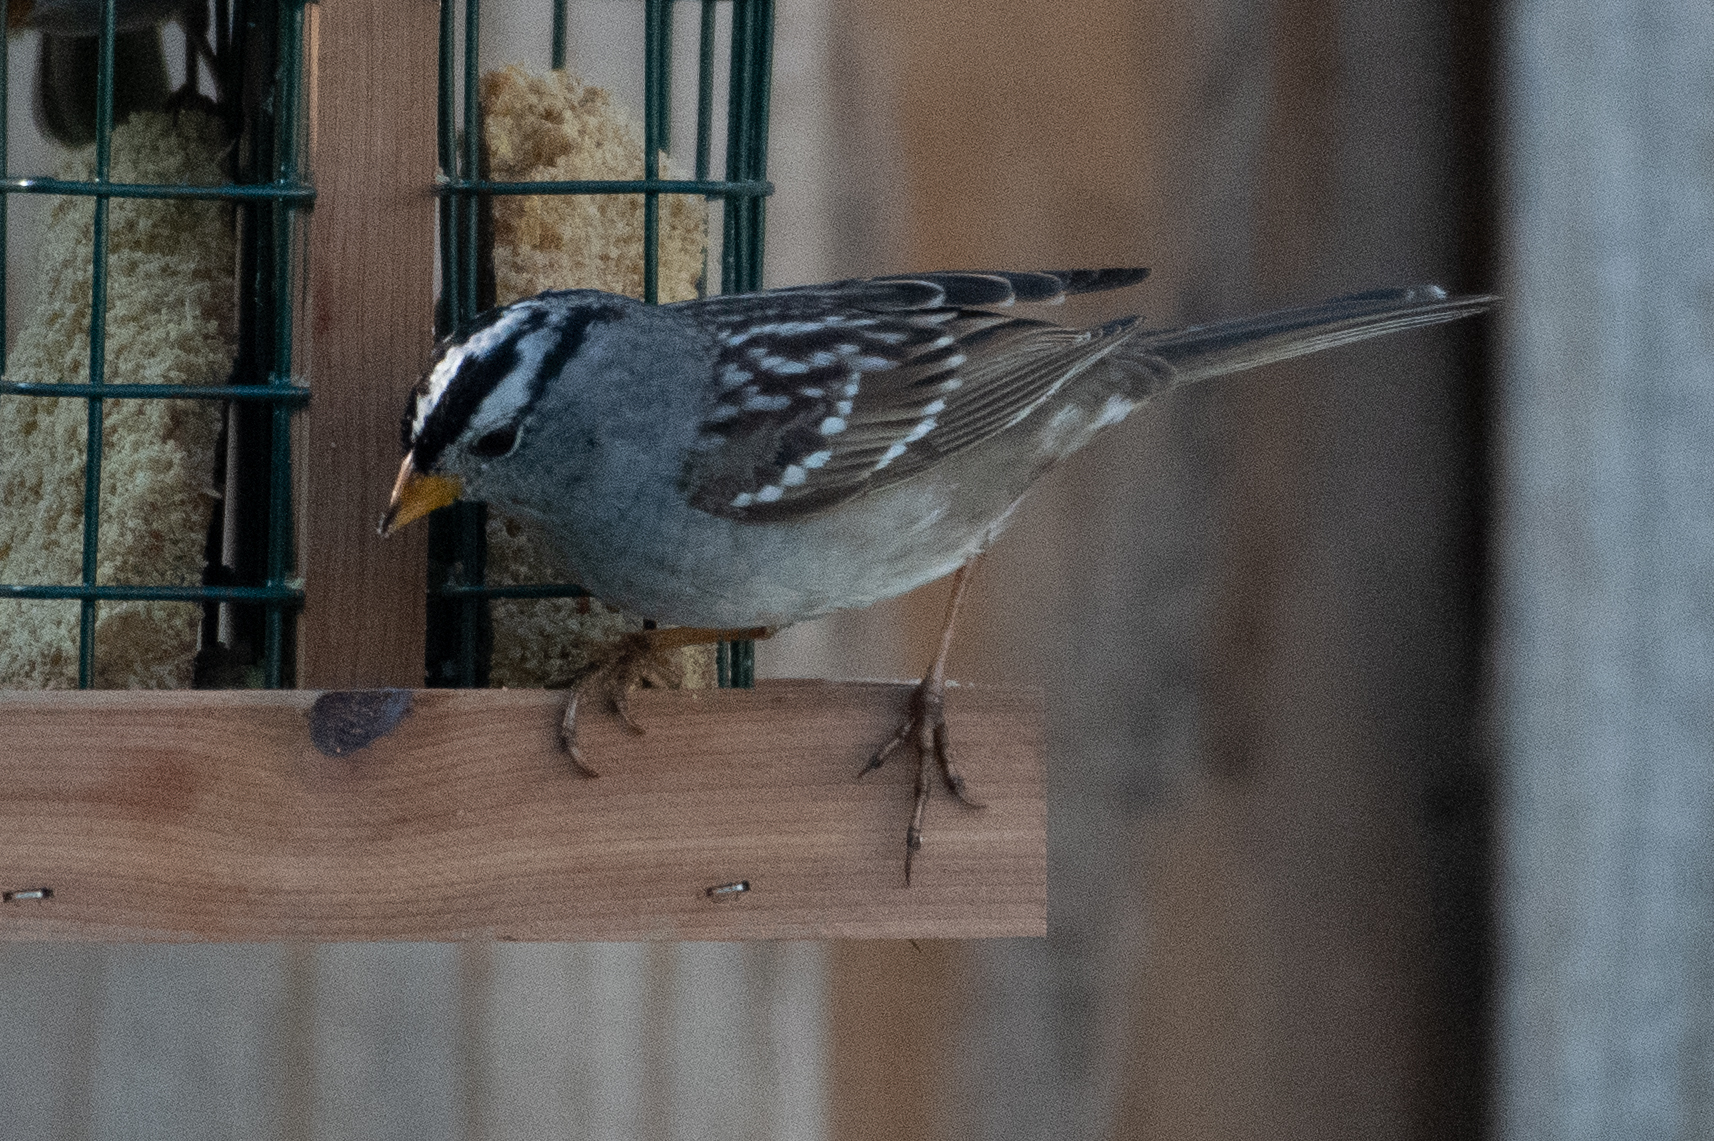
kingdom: Animalia
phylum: Chordata
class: Aves
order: Passeriformes
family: Passerellidae
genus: Zonotrichia
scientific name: Zonotrichia leucophrys
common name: White-crowned sparrow
